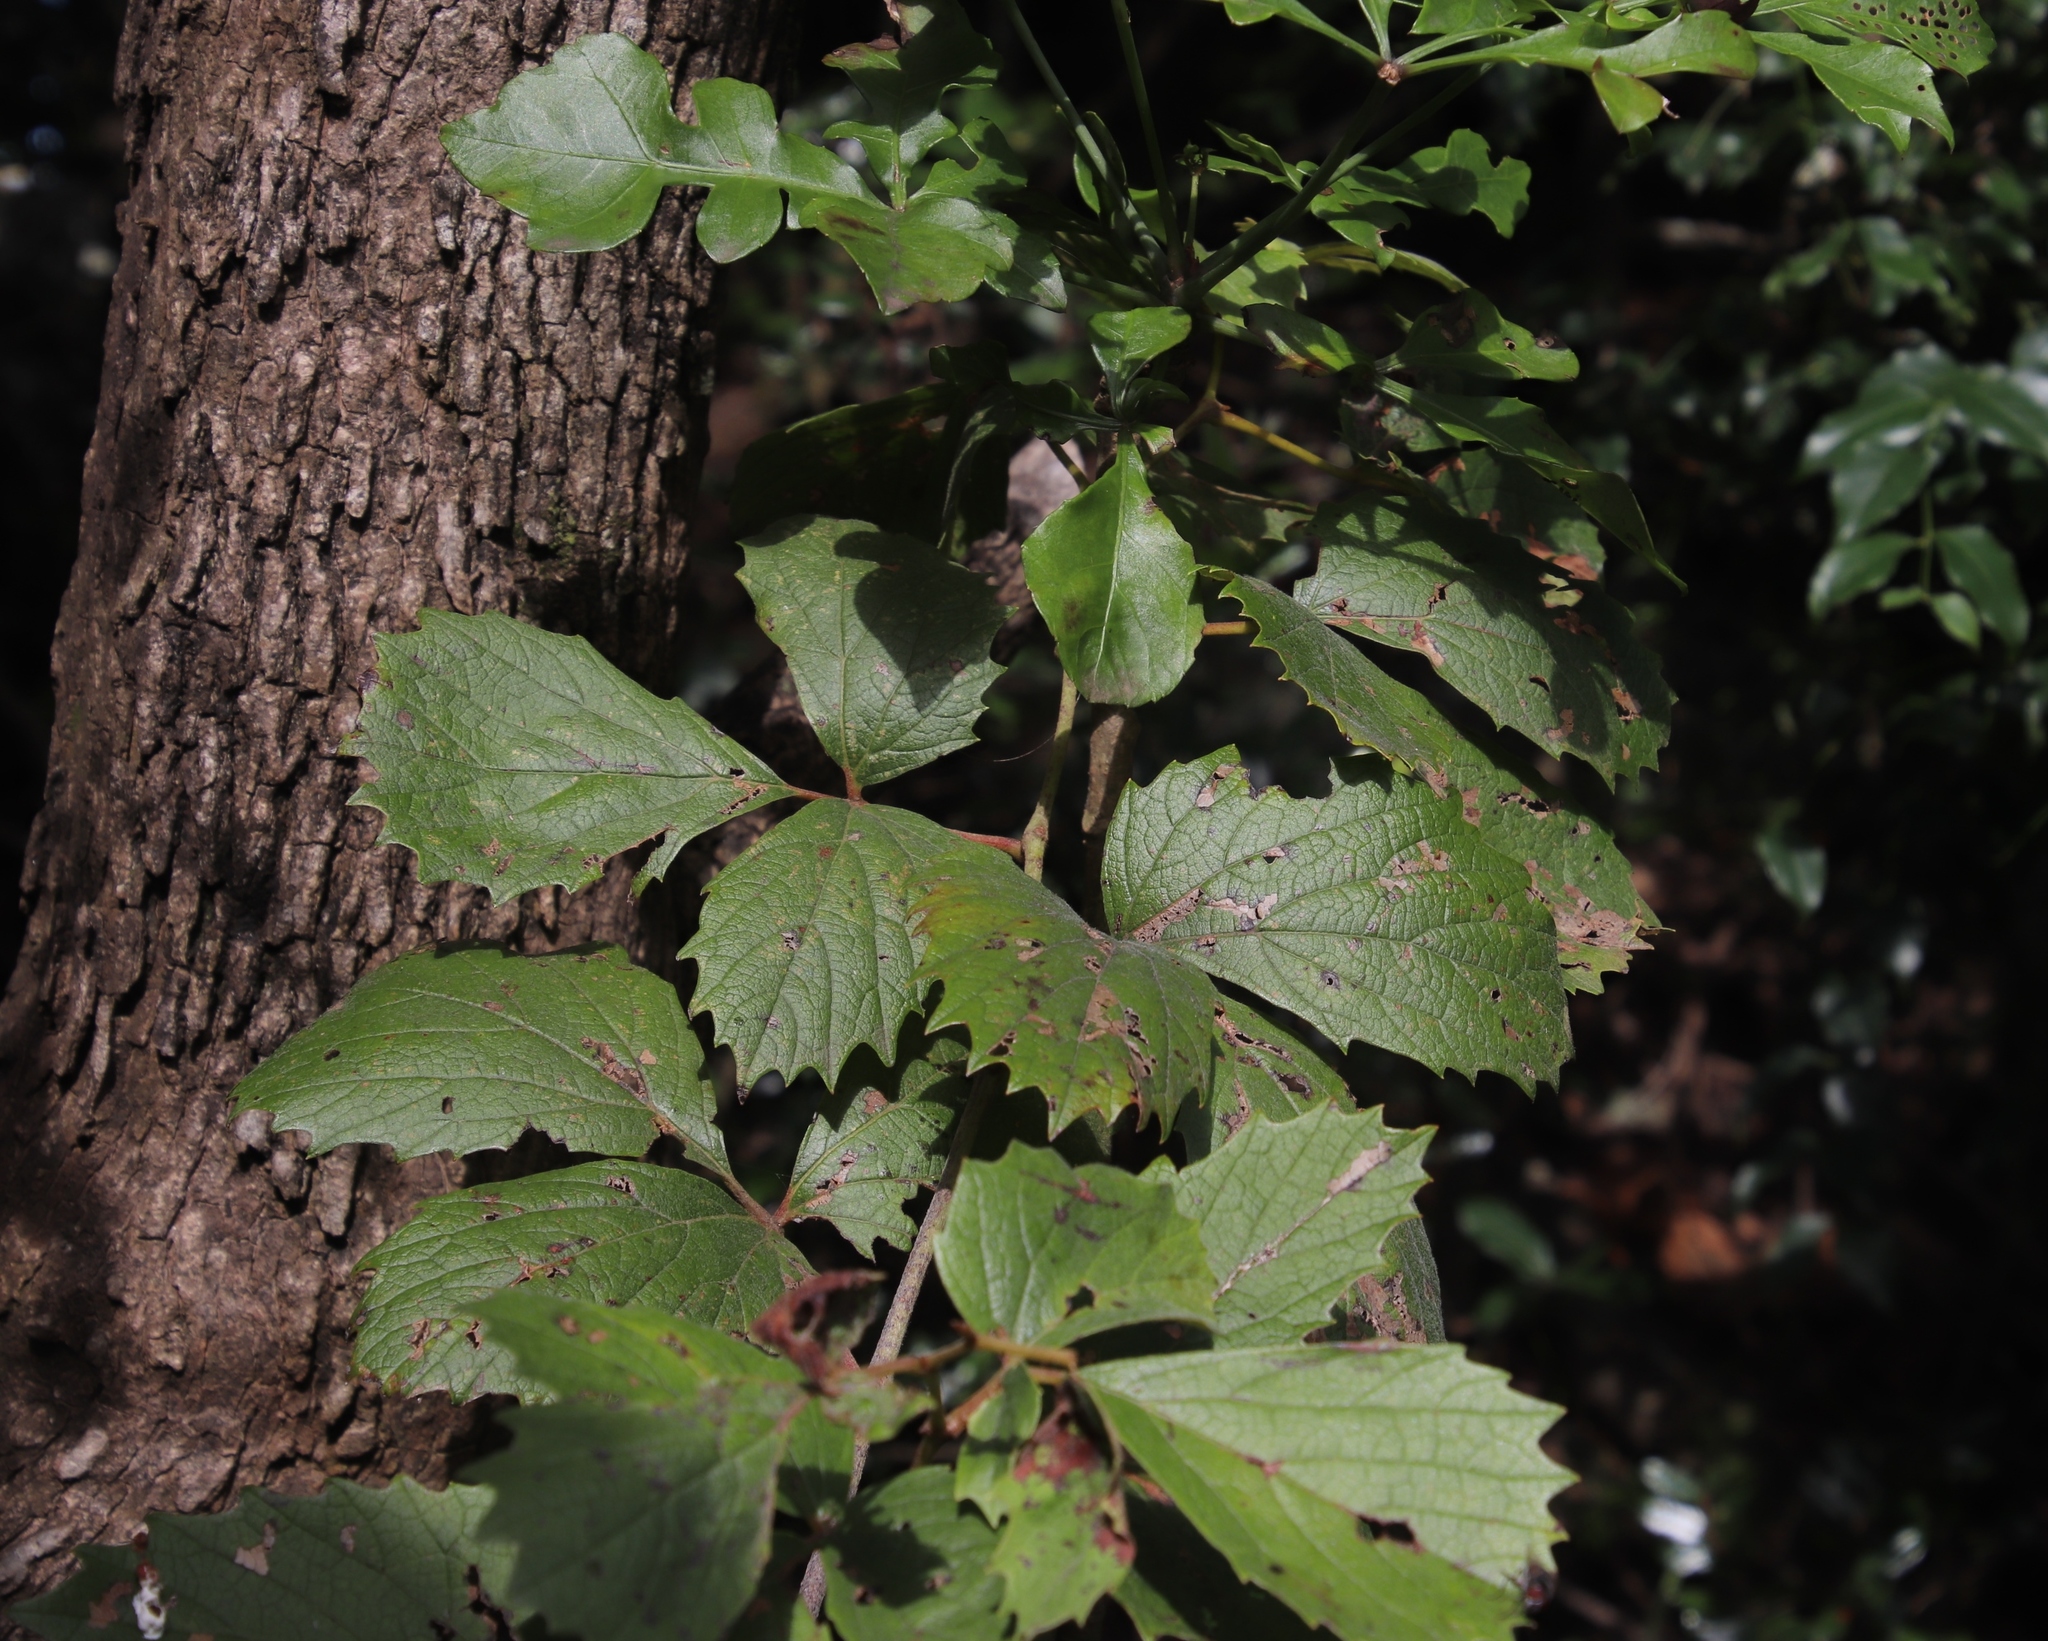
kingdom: Plantae
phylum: Tracheophyta
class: Magnoliopsida
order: Vitales
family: Vitaceae
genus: Rhoicissus
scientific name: Rhoicissus tridentata
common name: Common forest grape
